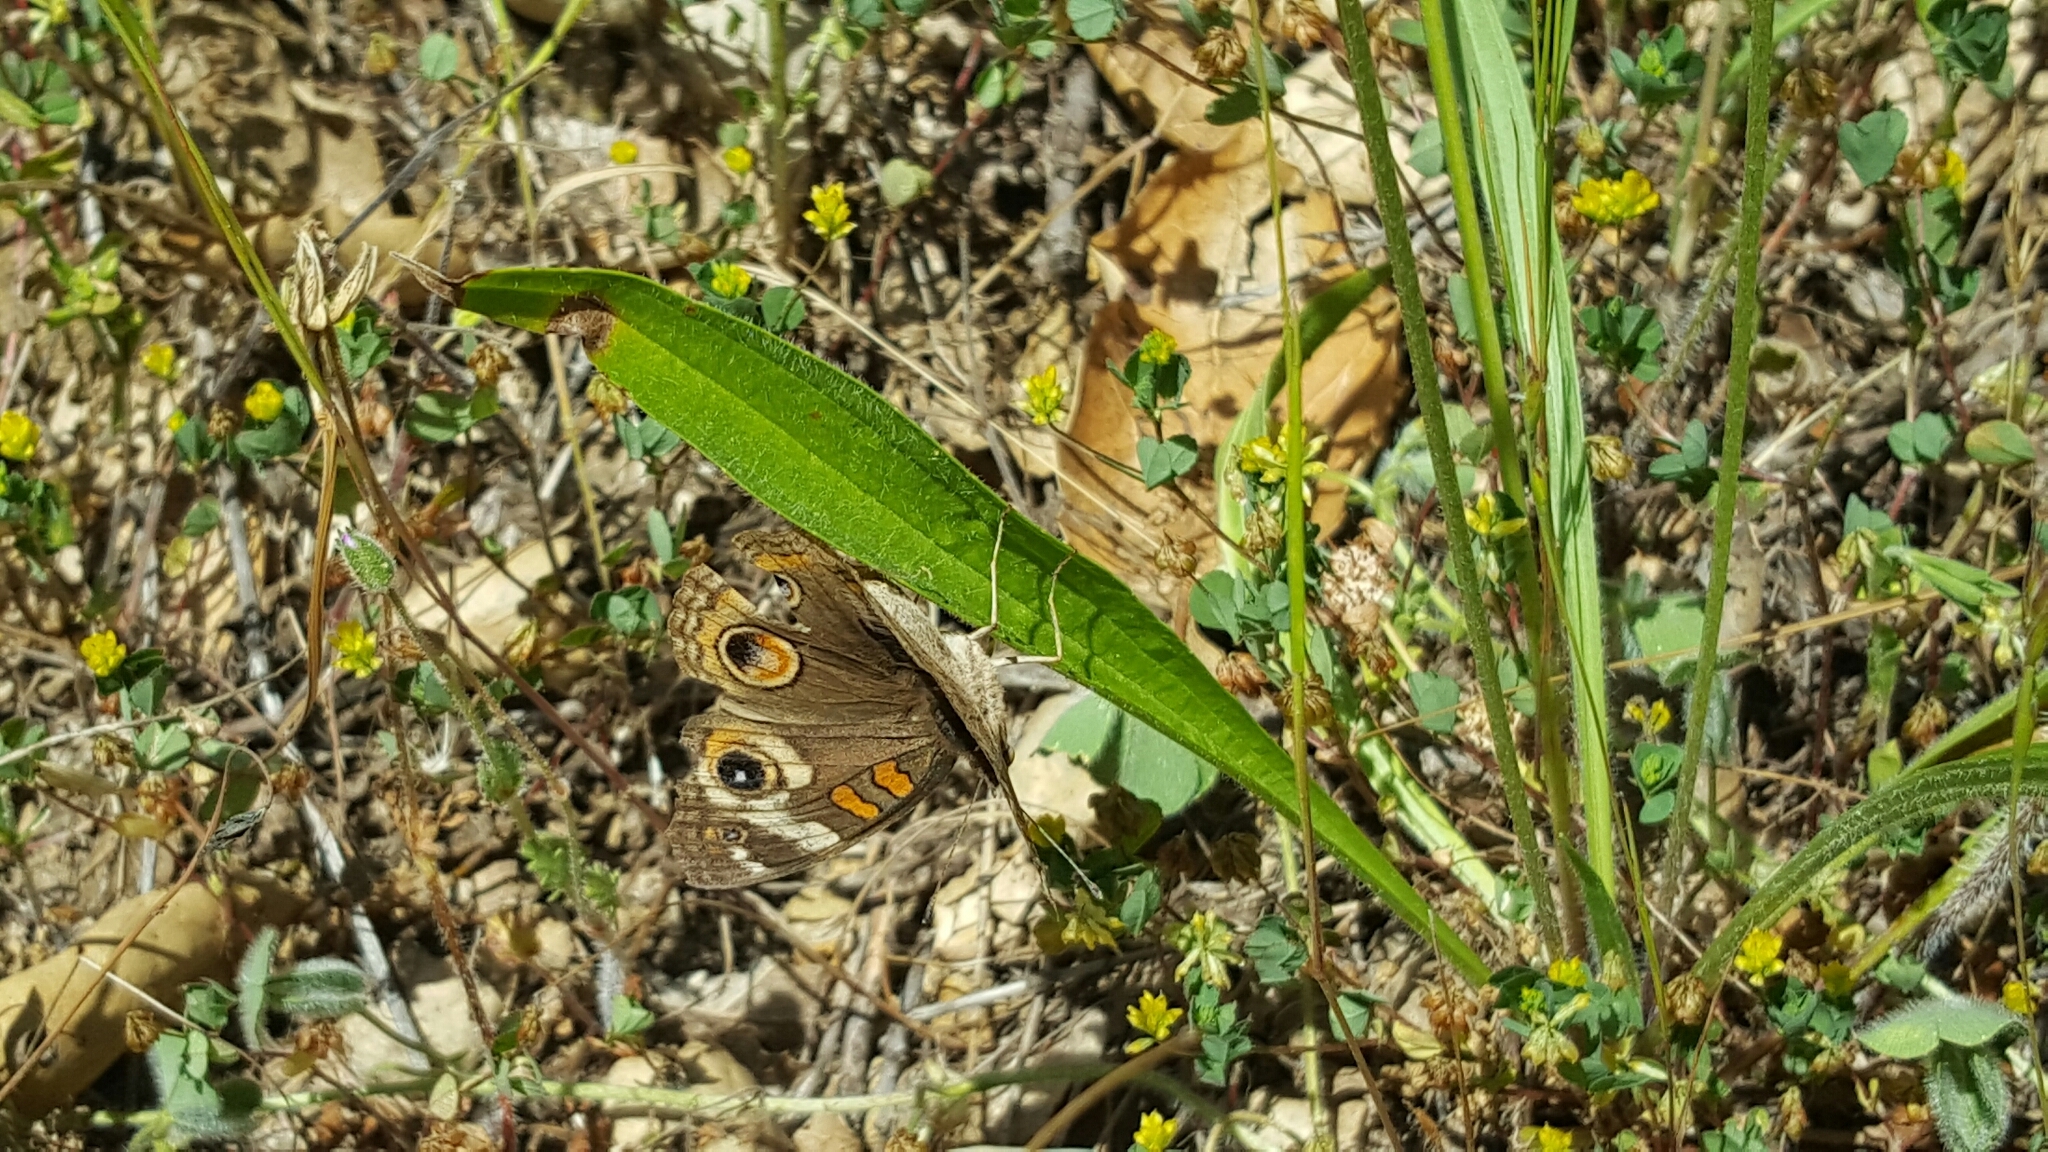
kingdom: Animalia
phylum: Arthropoda
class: Insecta
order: Lepidoptera
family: Nymphalidae
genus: Junonia
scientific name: Junonia grisea
